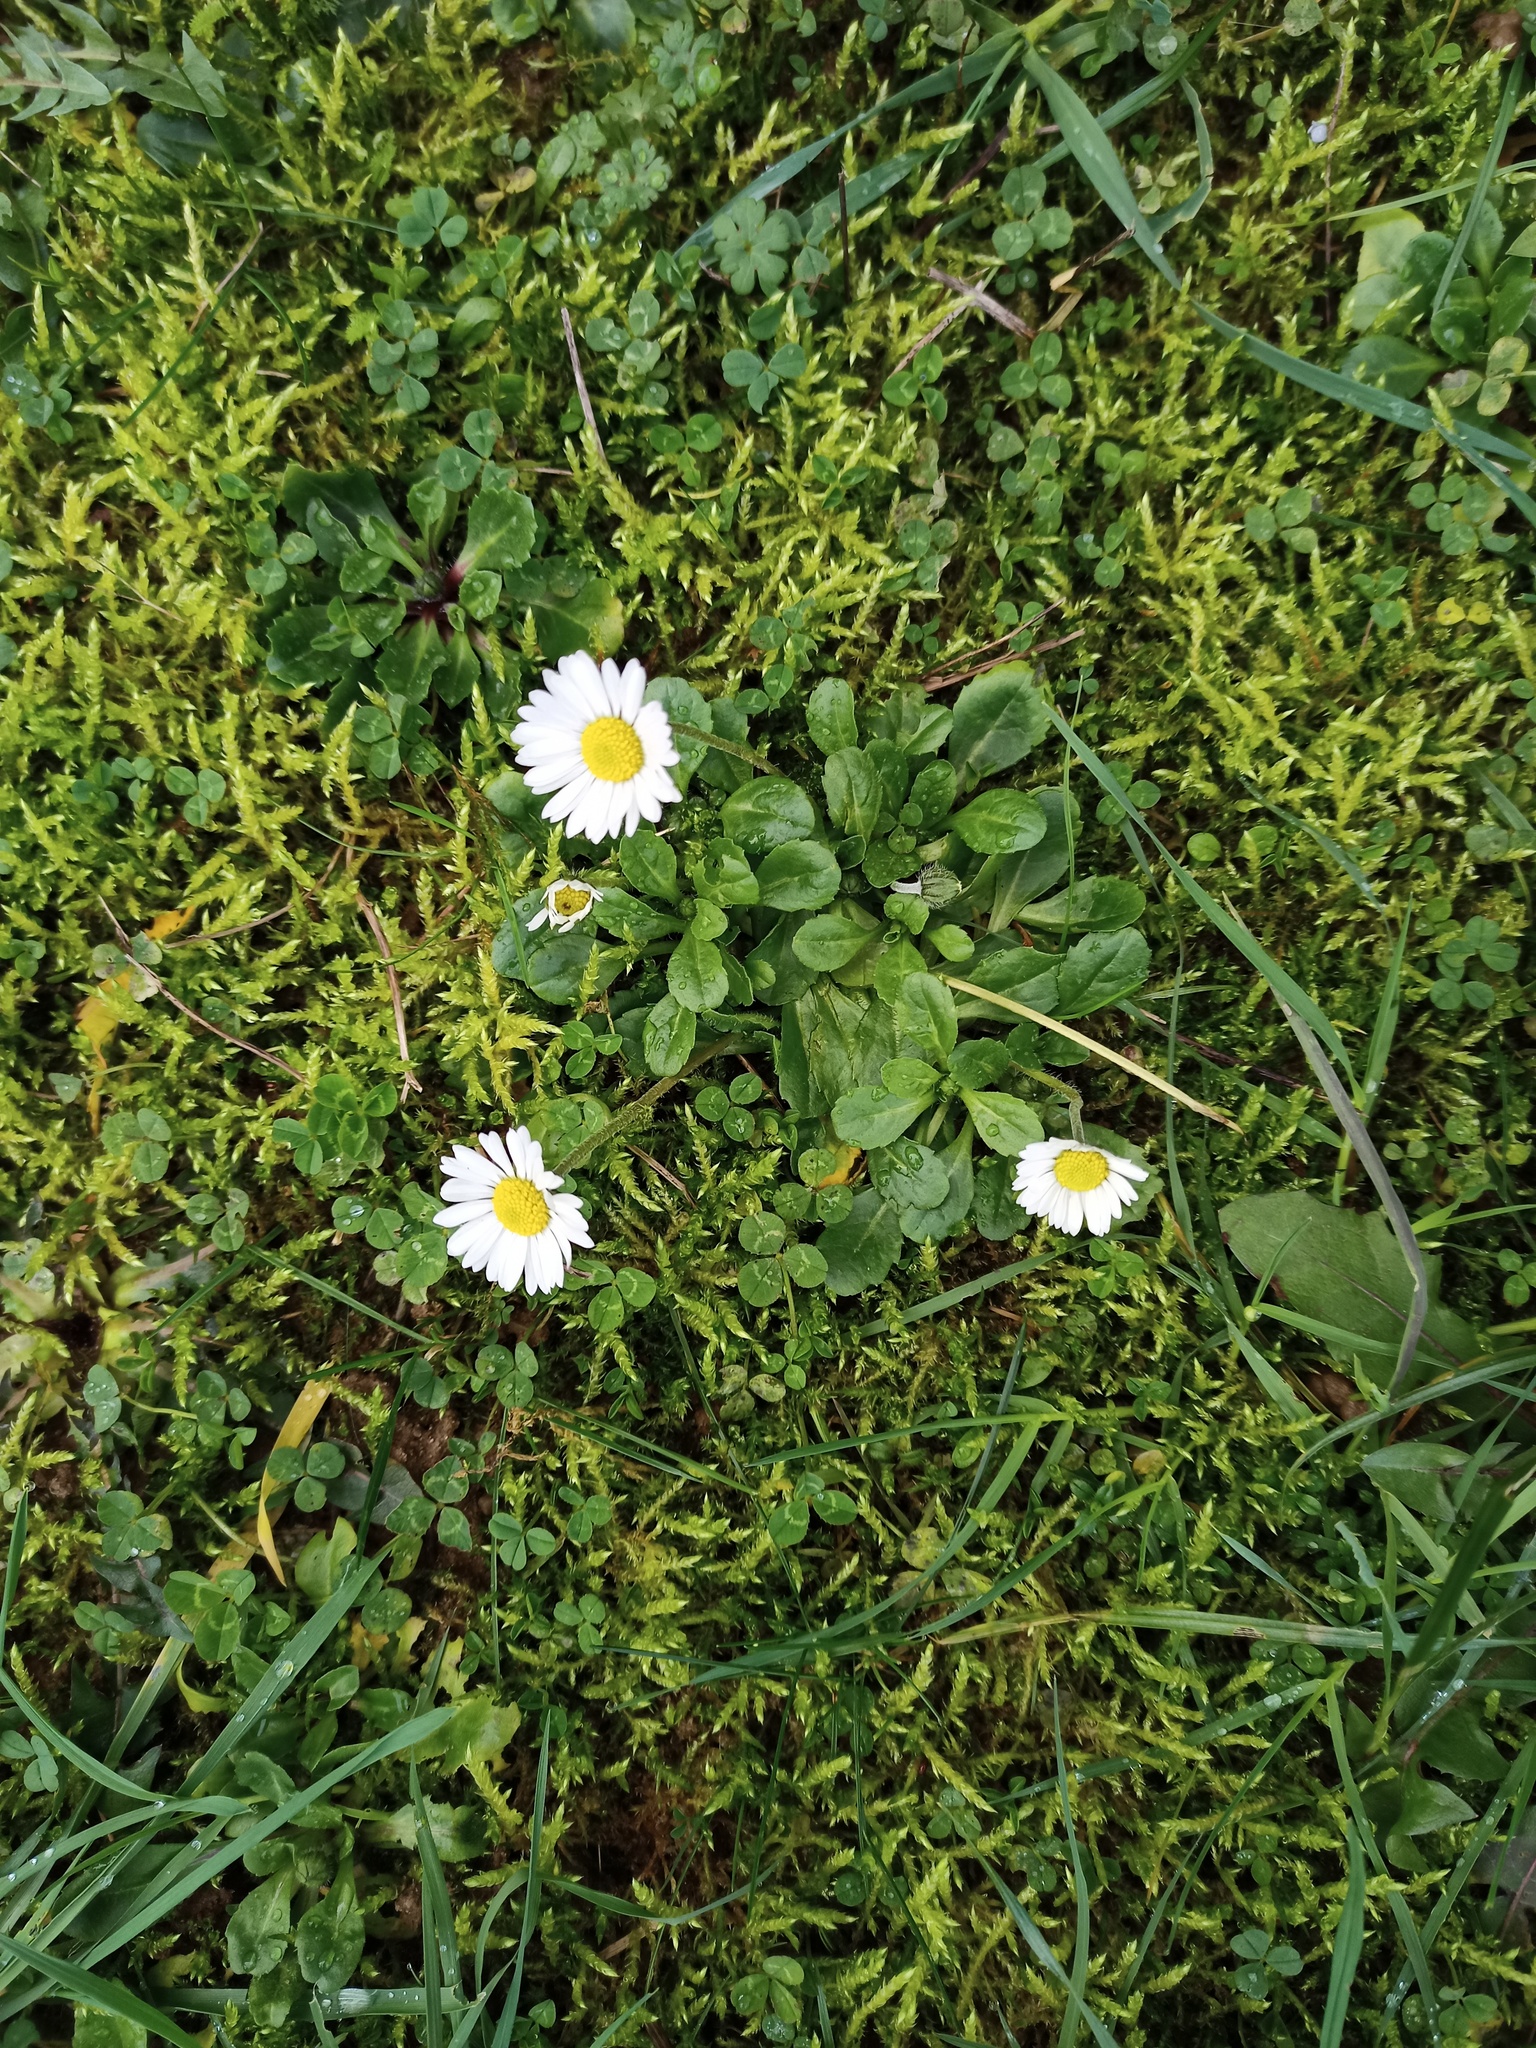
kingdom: Plantae
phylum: Tracheophyta
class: Magnoliopsida
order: Asterales
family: Asteraceae
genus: Bellis
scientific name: Bellis perennis
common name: Lawndaisy
